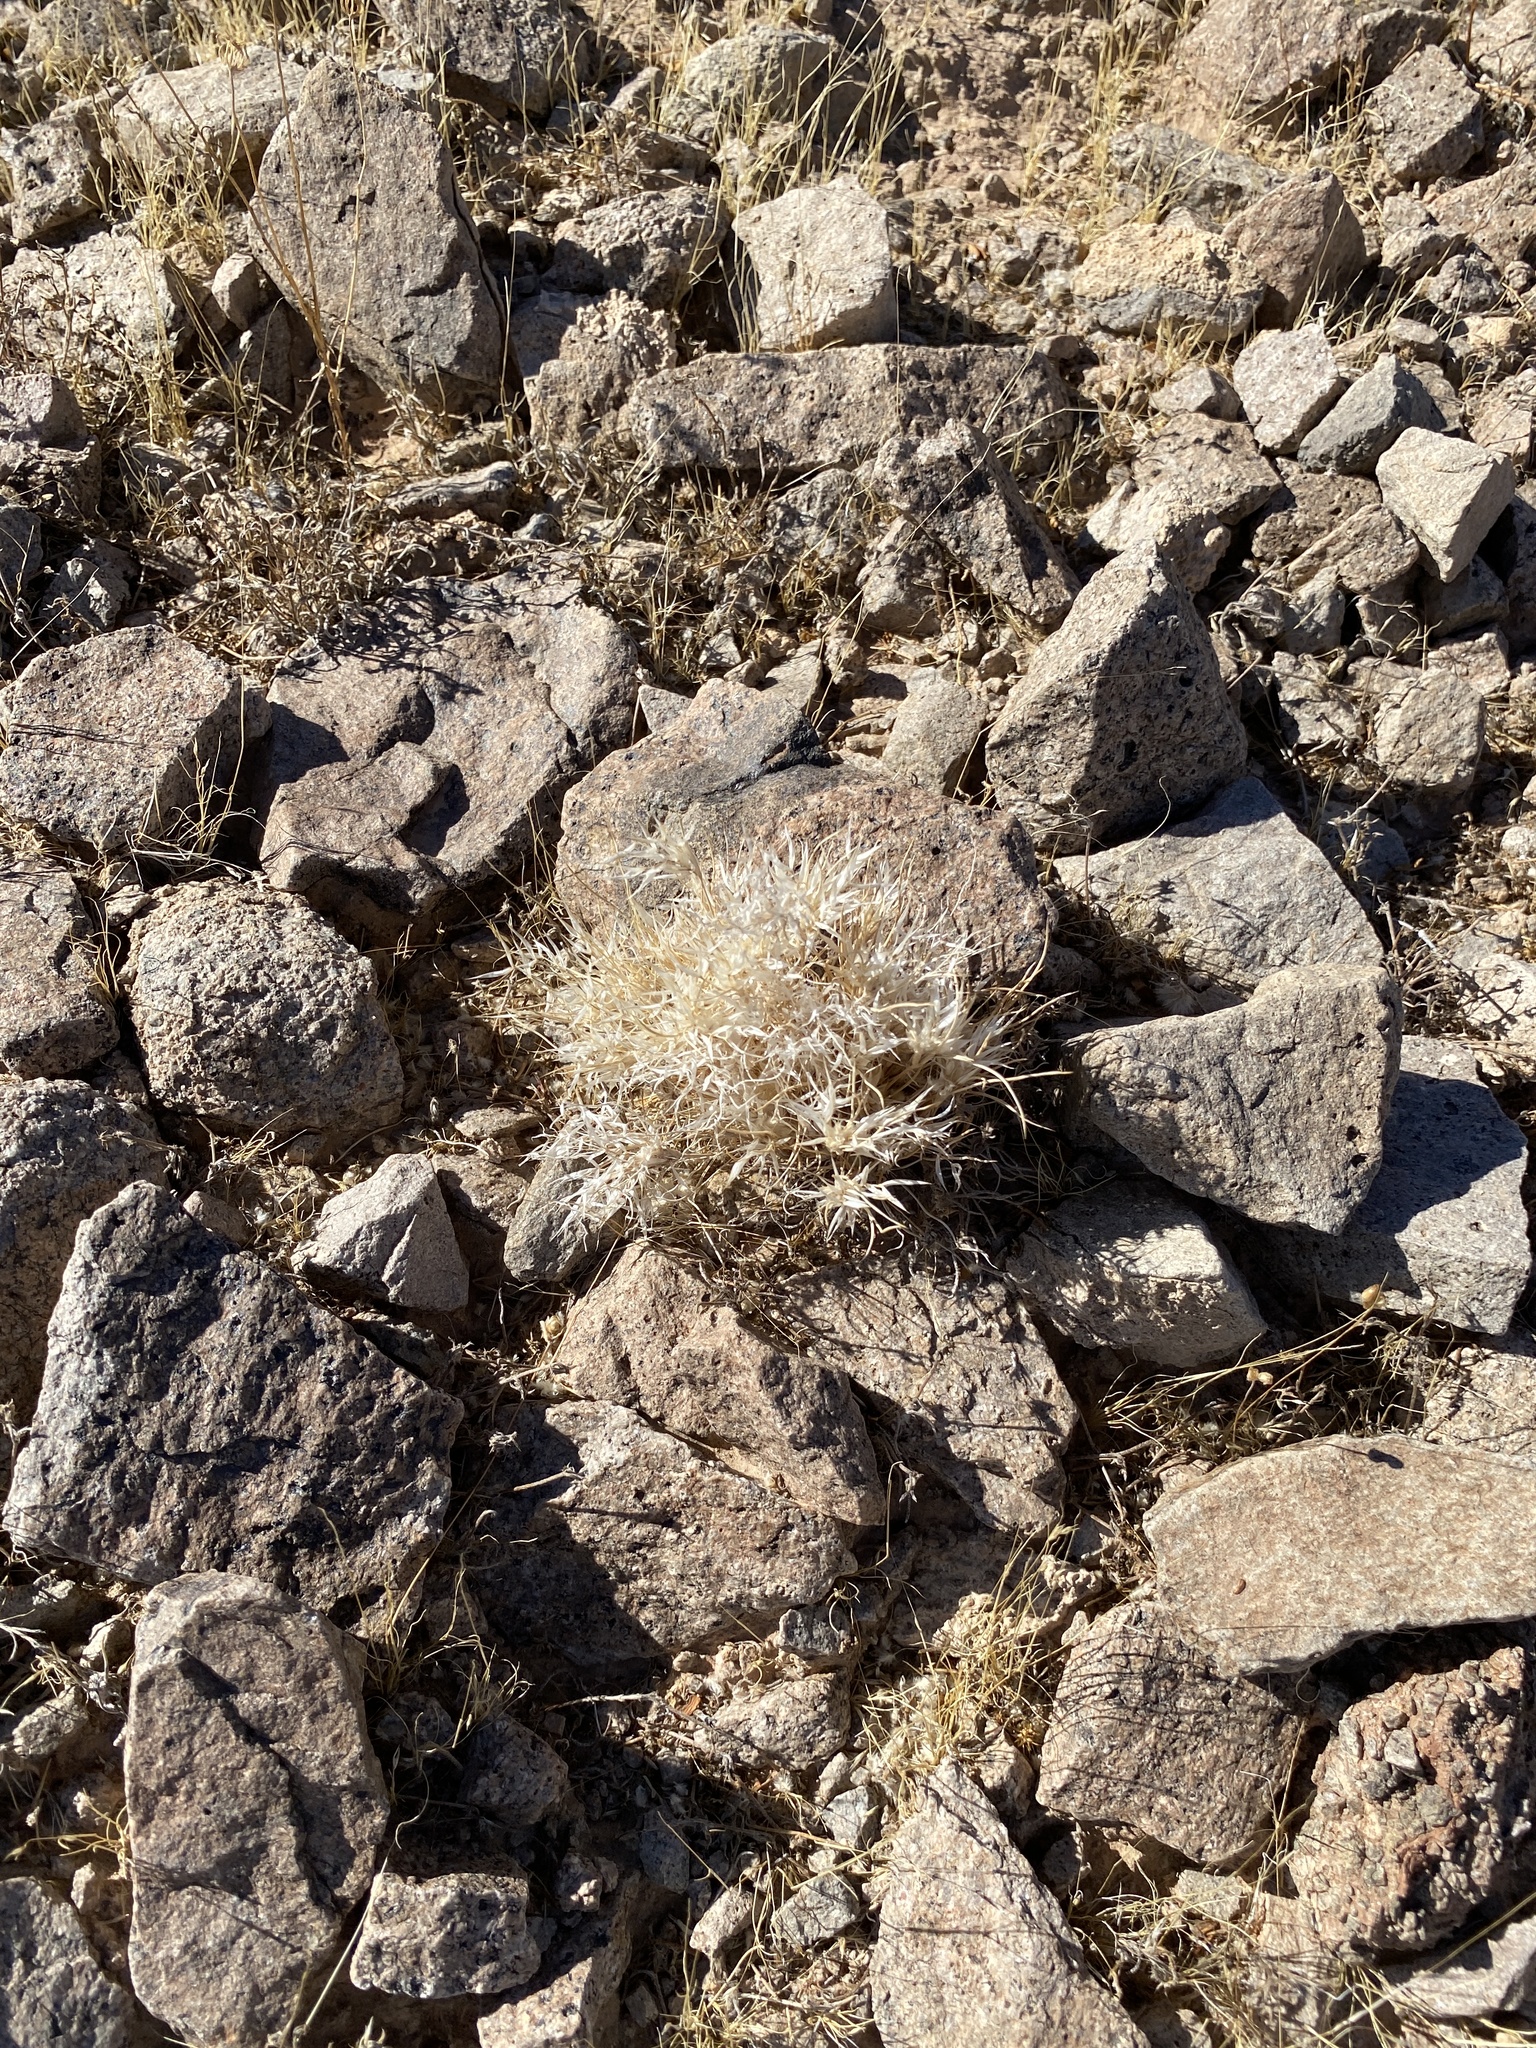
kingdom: Plantae
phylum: Tracheophyta
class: Liliopsida
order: Poales
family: Poaceae
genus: Dasyochloa
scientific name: Dasyochloa pulchella
